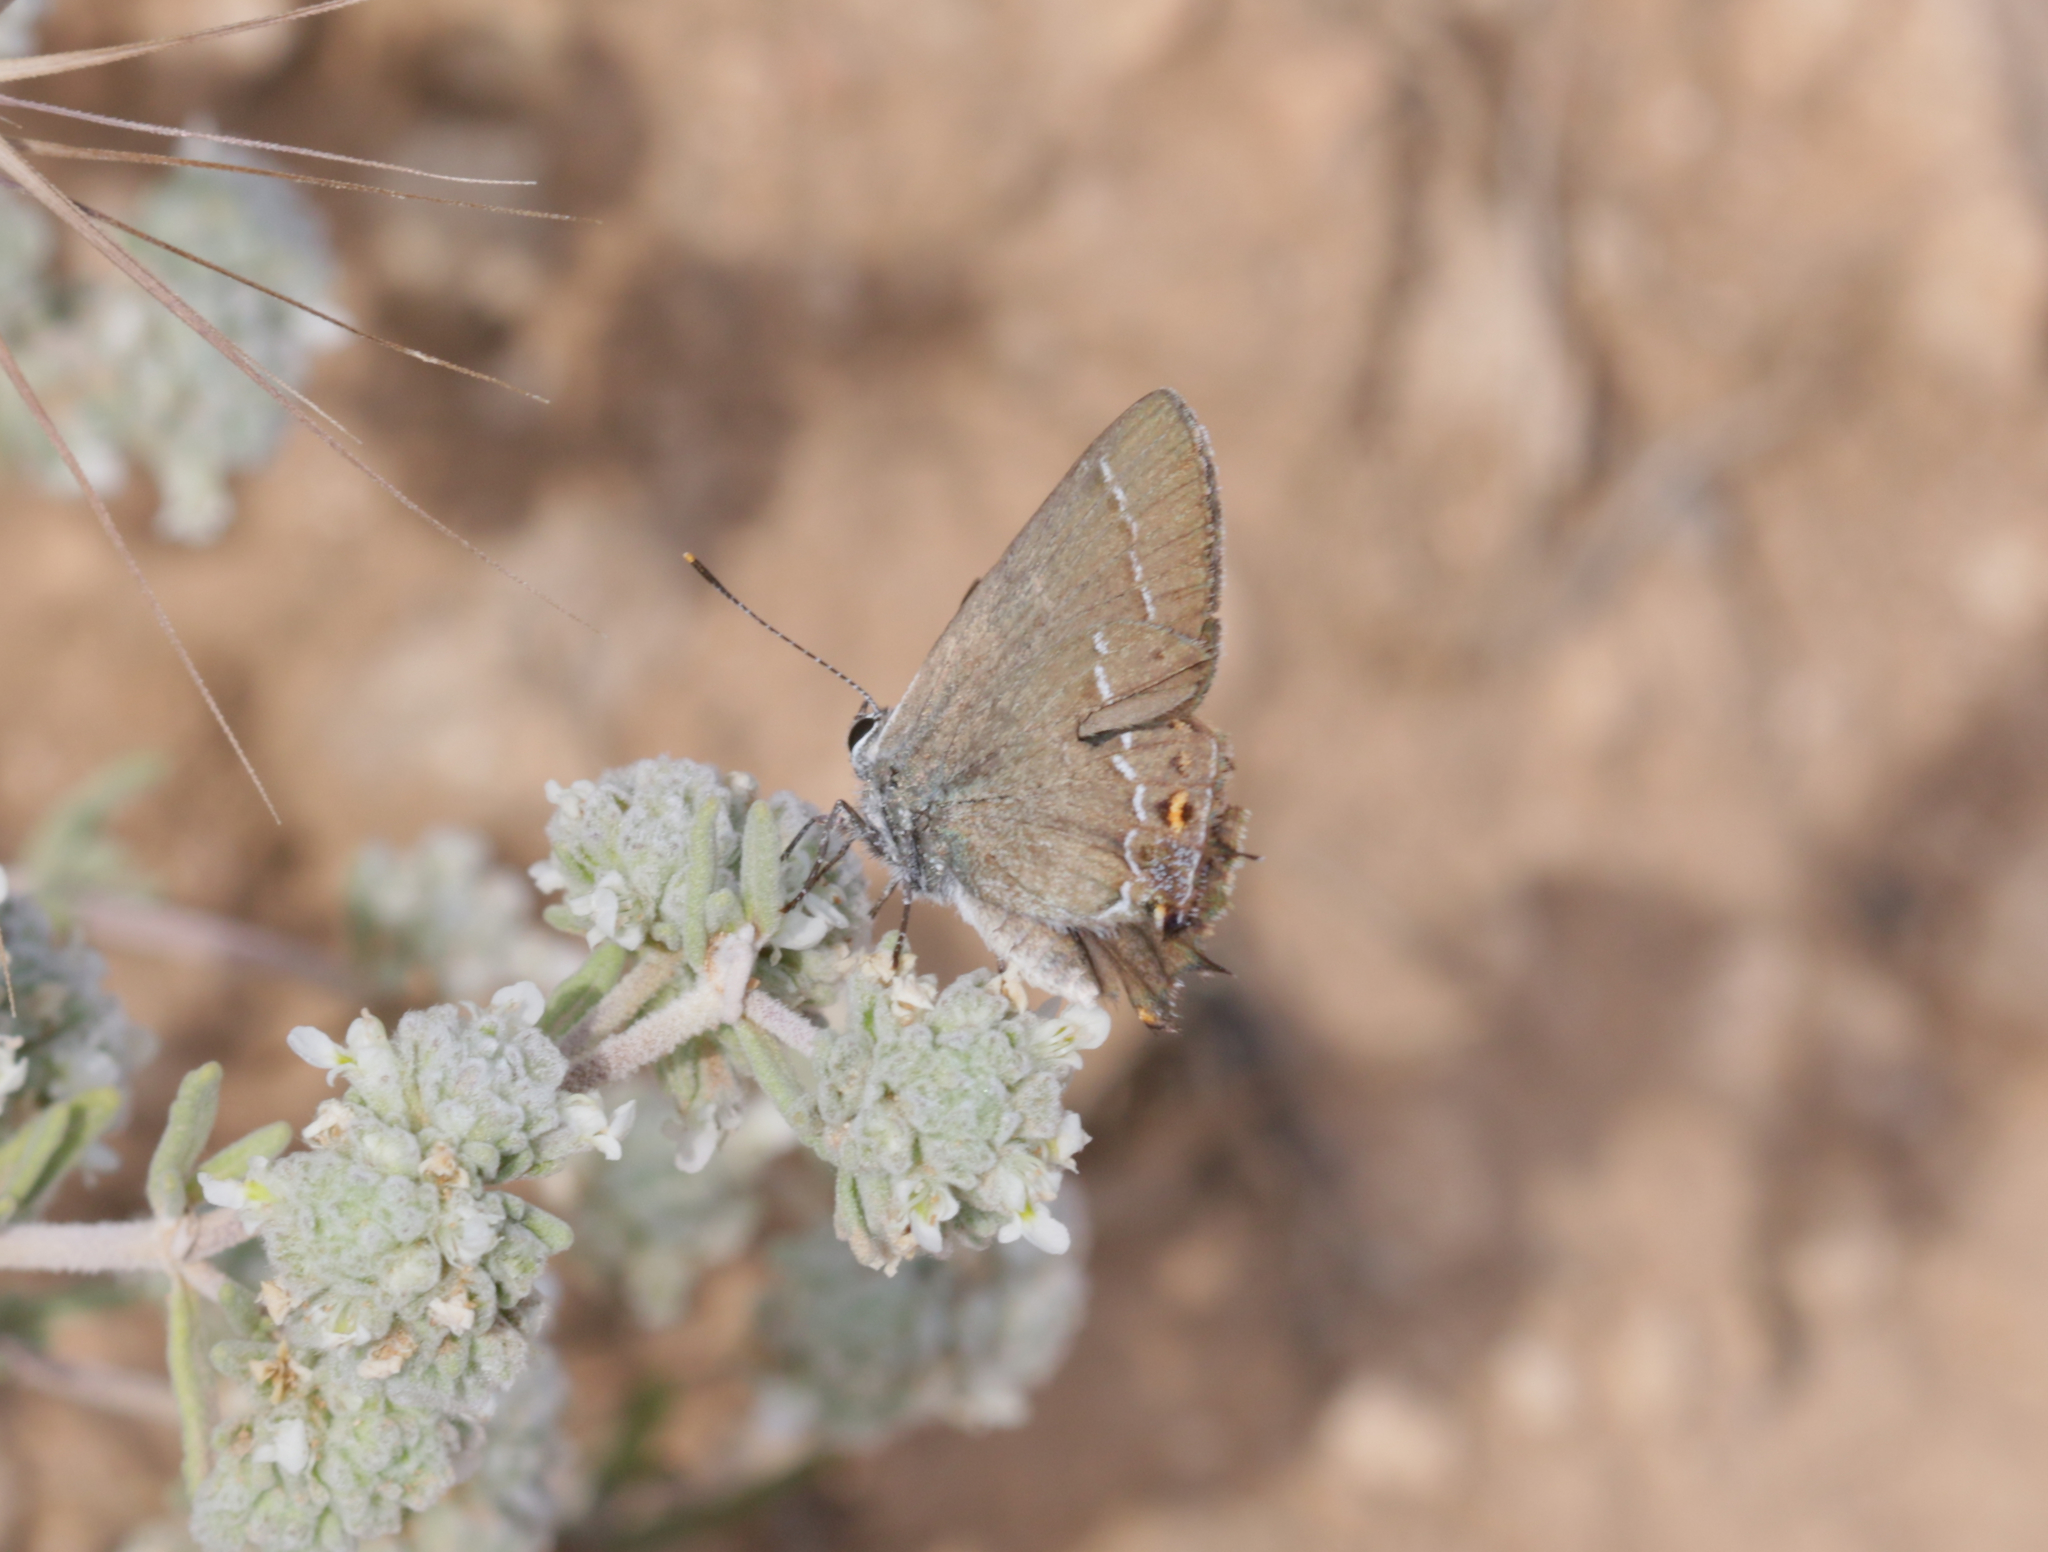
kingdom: Animalia
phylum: Arthropoda
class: Insecta
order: Lepidoptera
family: Lycaenidae
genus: Tuttiola
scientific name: Tuttiola spini
